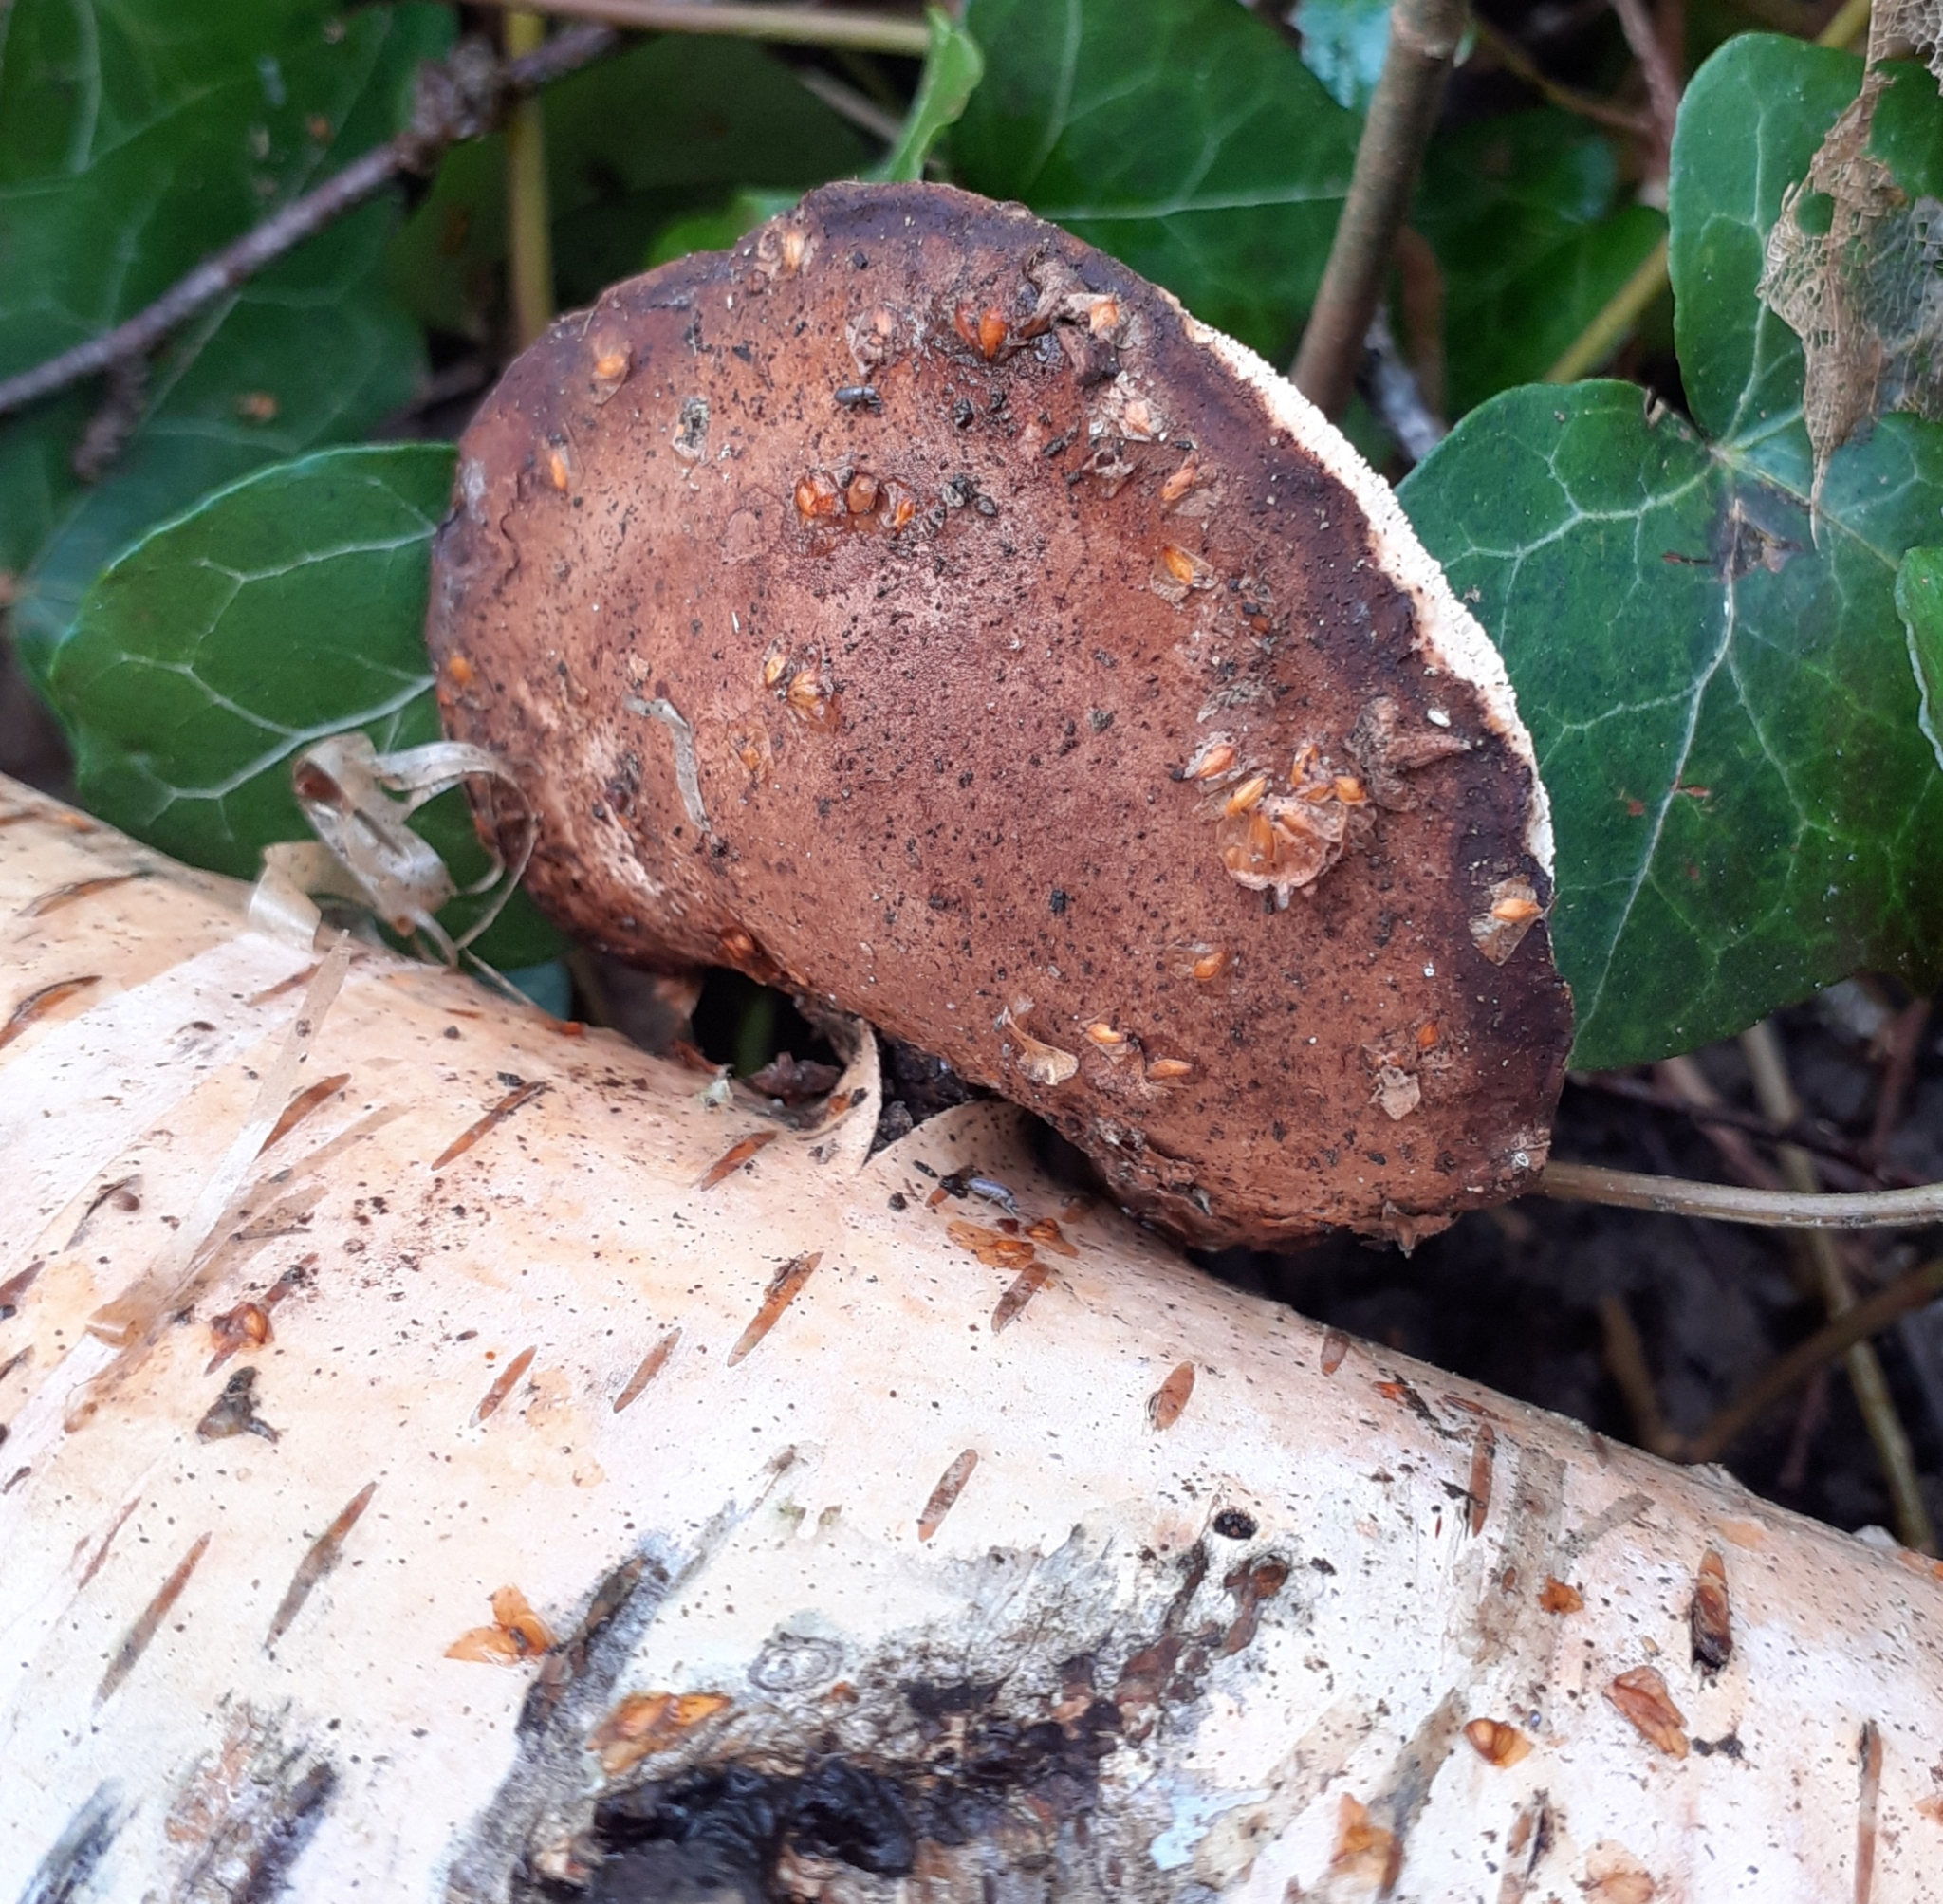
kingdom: Fungi
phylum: Basidiomycota
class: Agaricomycetes
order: Polyporales
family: Fomitopsidaceae
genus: Fomitopsis
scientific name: Fomitopsis betulina
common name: Birch polypore
